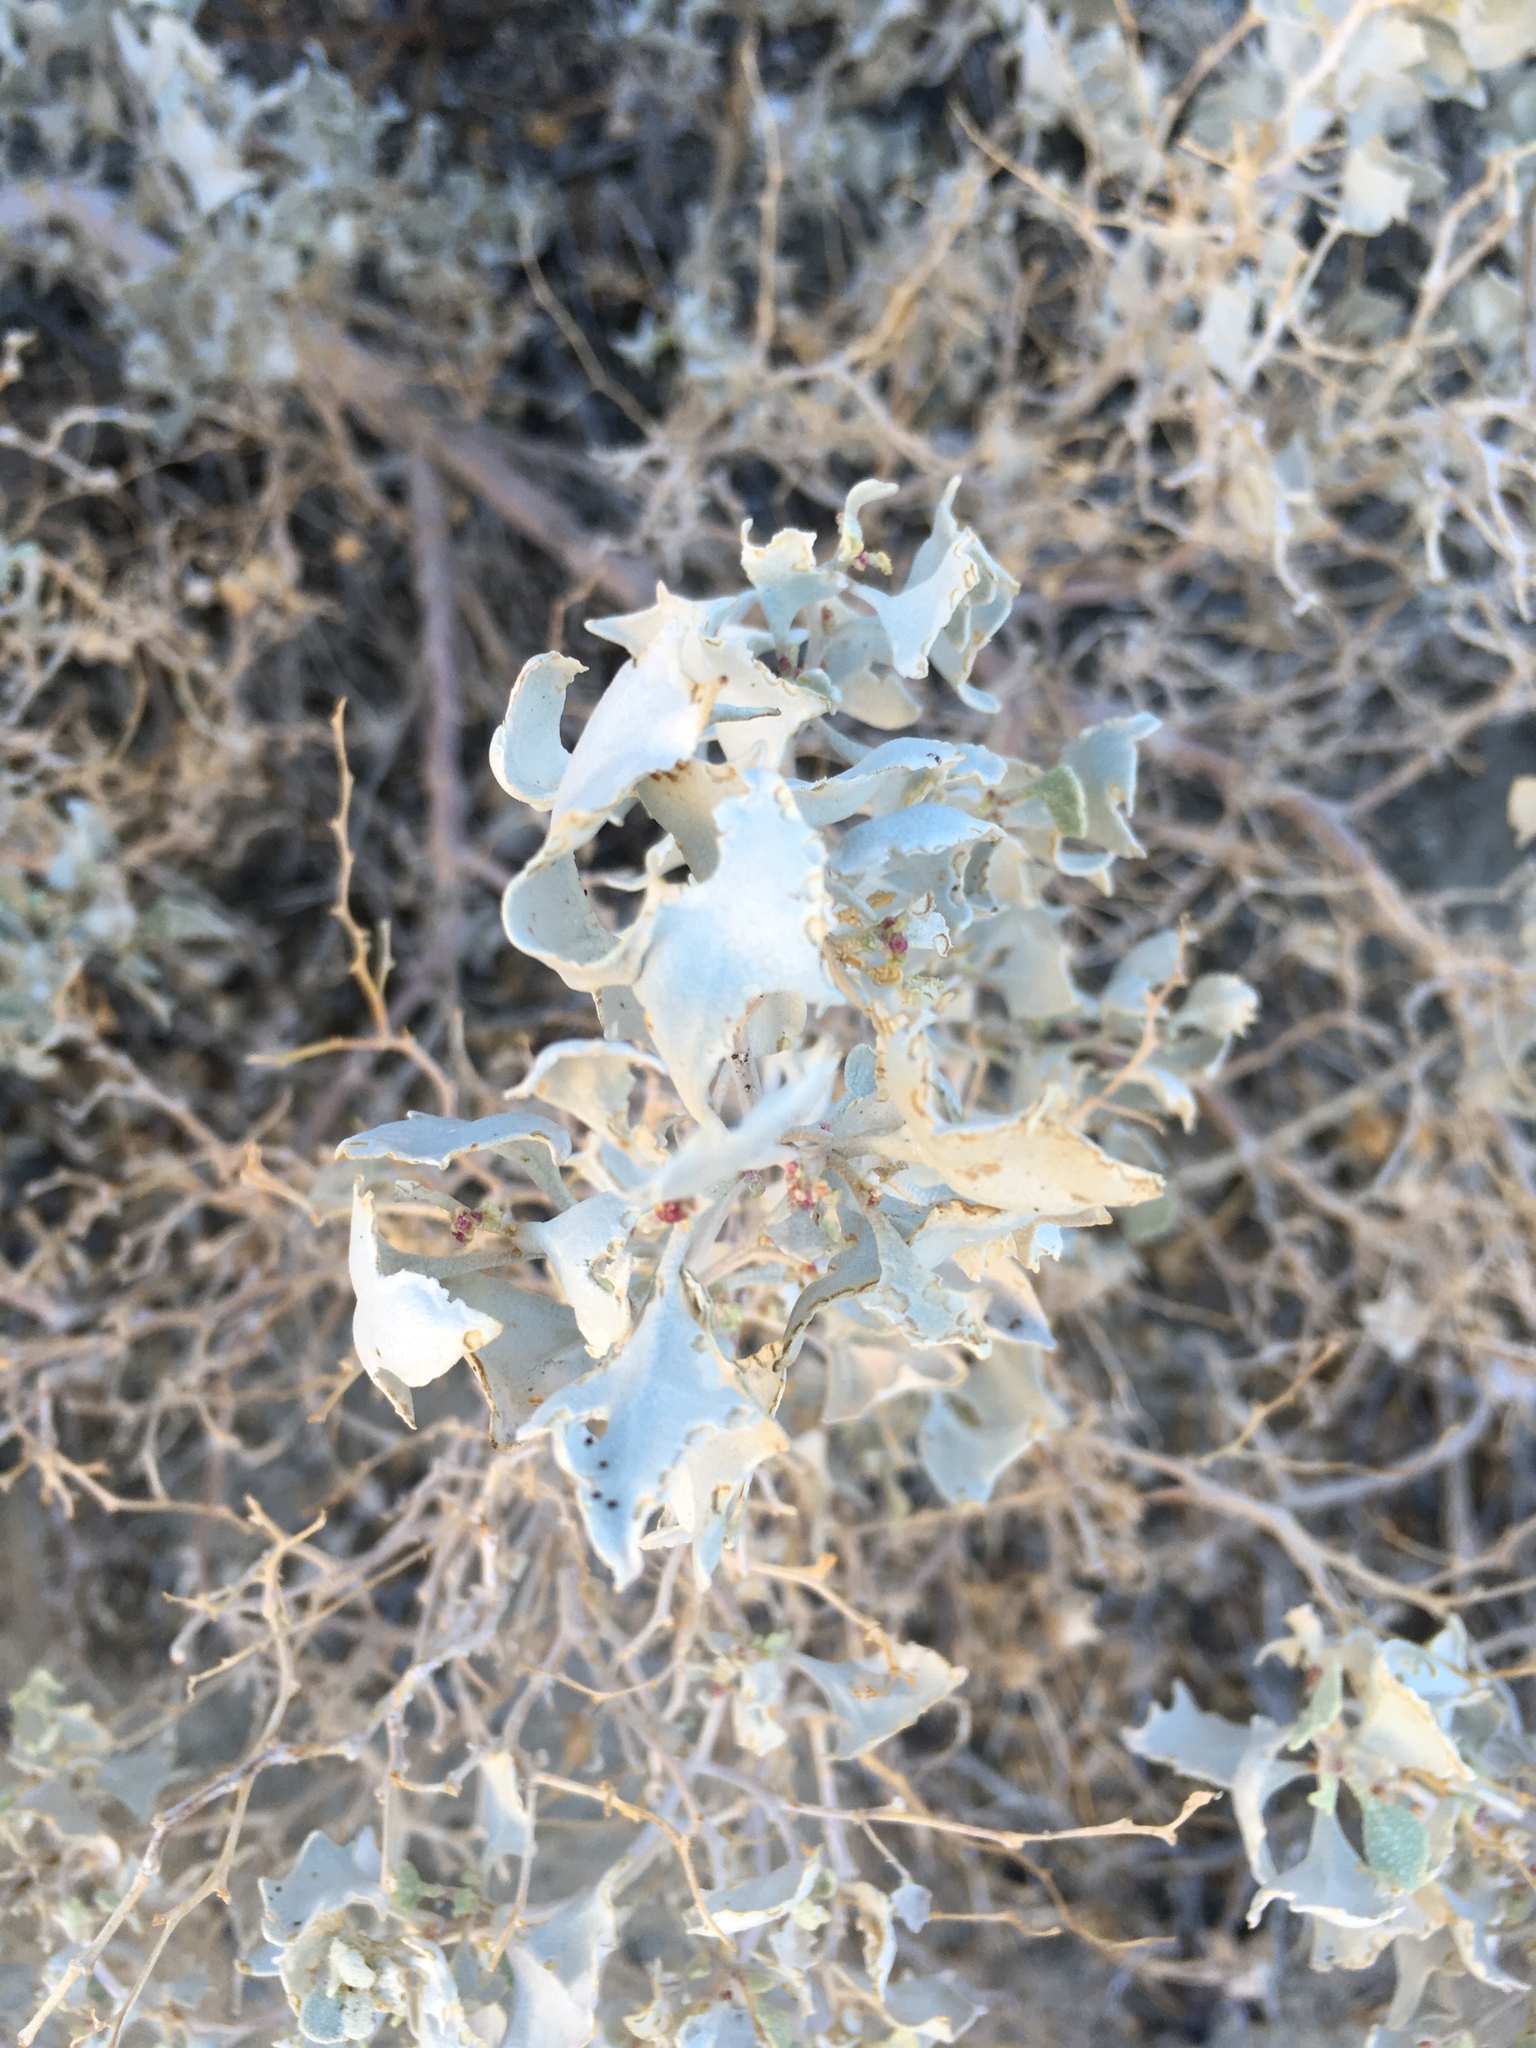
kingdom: Plantae
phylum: Tracheophyta
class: Magnoliopsida
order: Caryophyllales
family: Amaranthaceae
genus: Atriplex
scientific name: Atriplex hymenelytra
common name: Desert-holly
